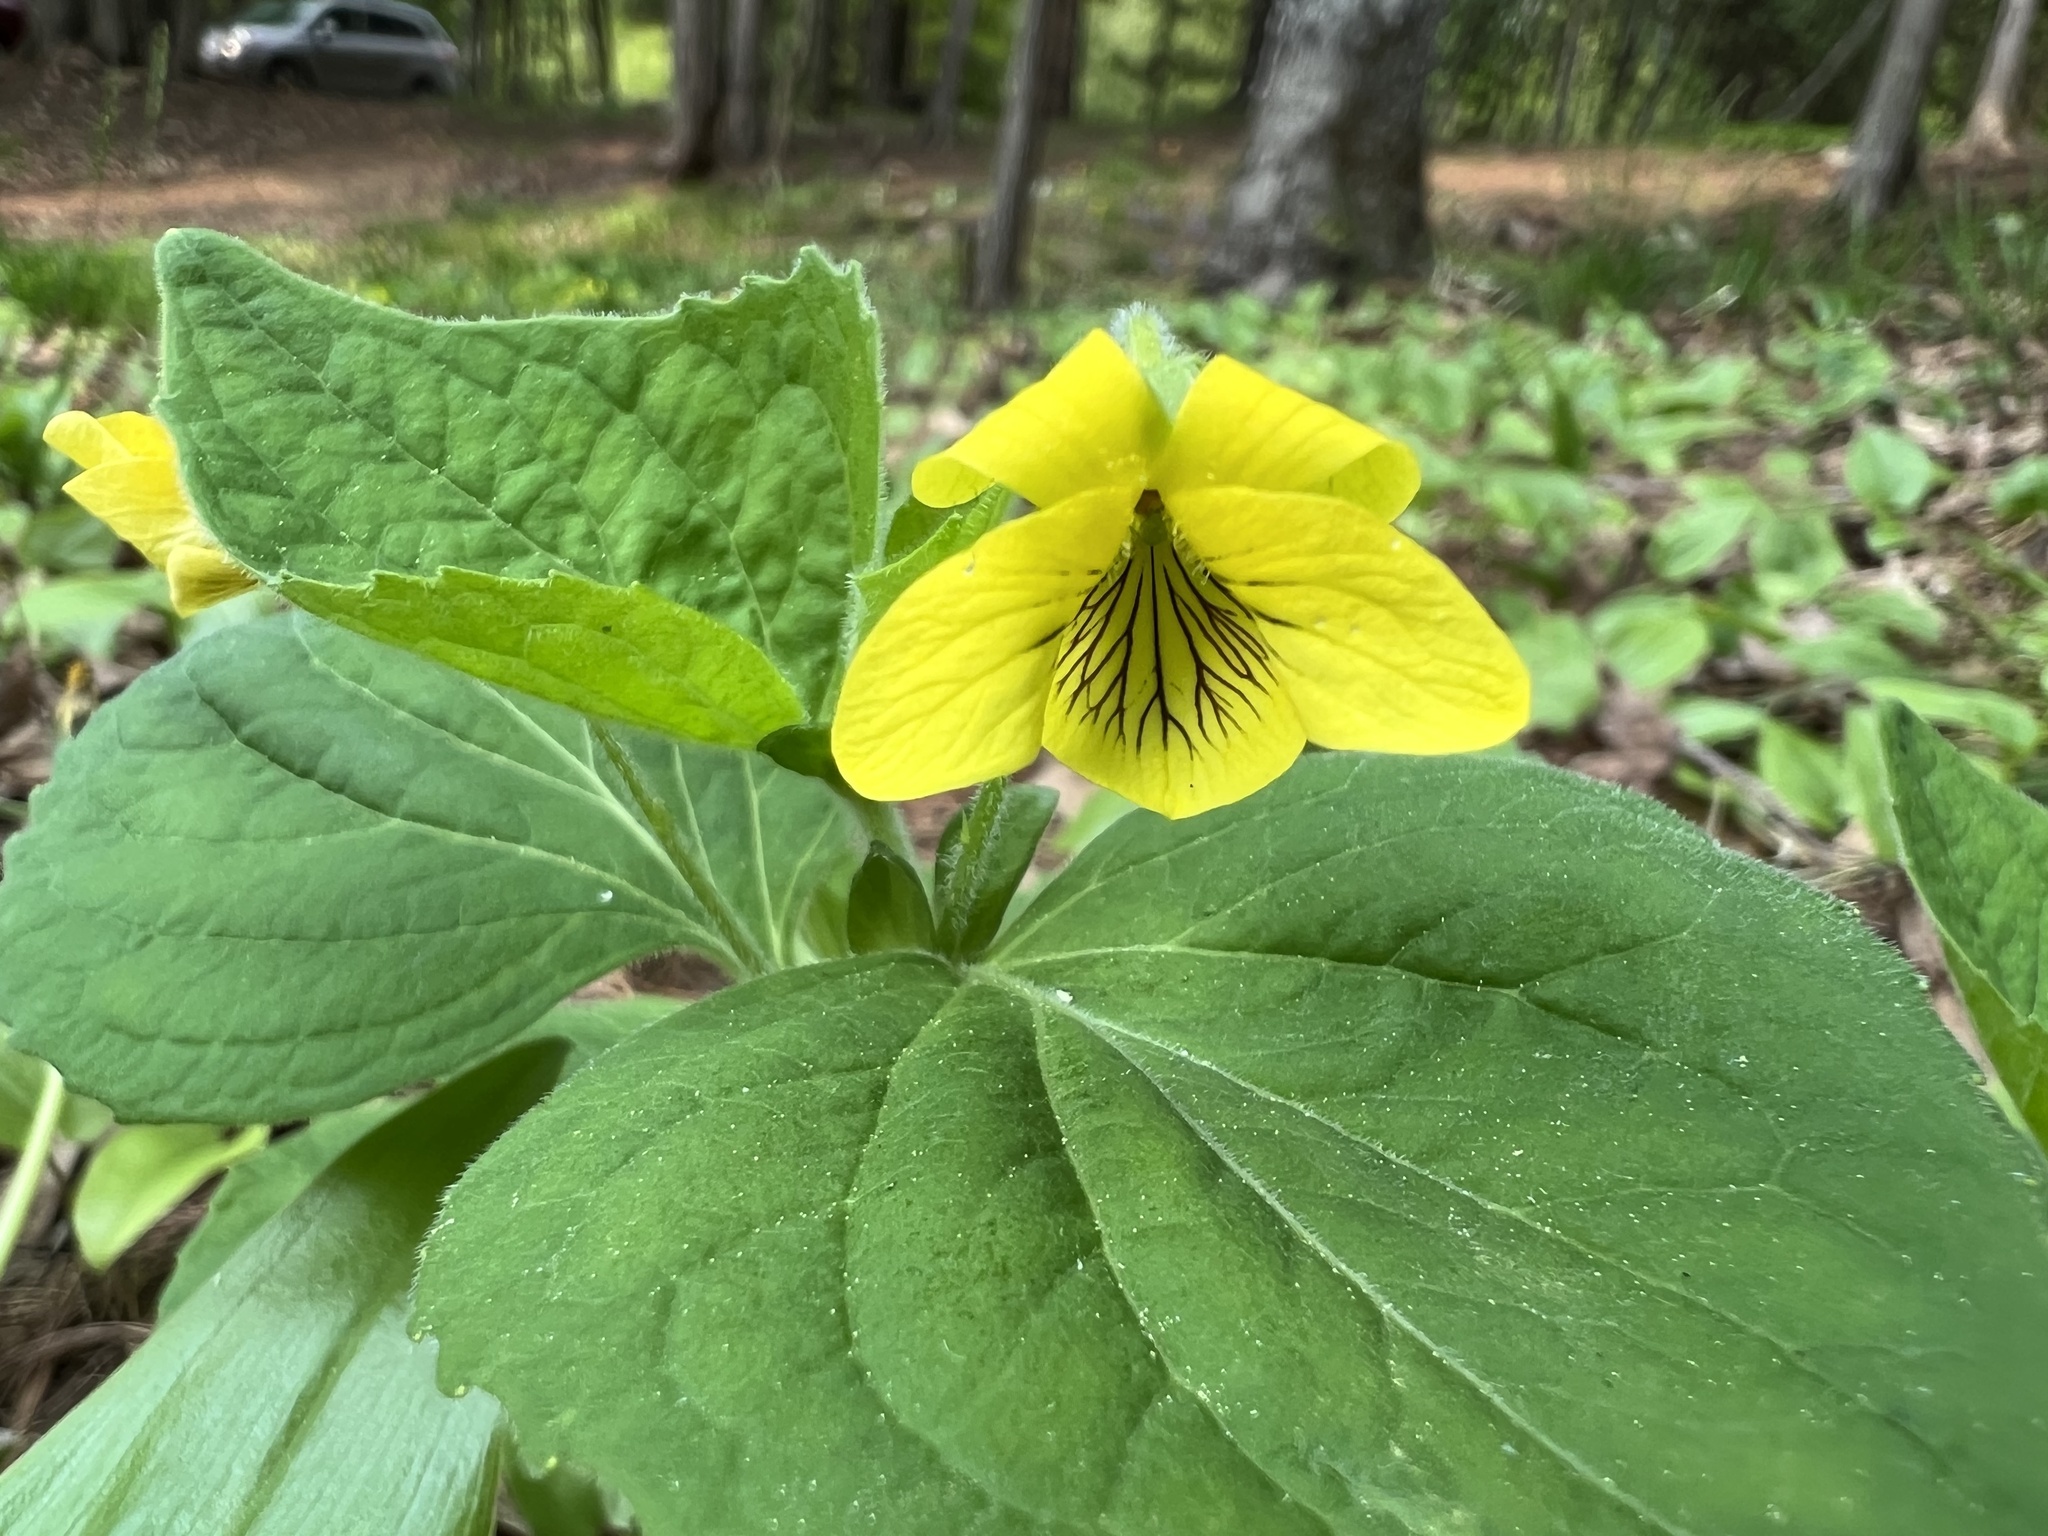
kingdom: Plantae
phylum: Tracheophyta
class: Magnoliopsida
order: Malpighiales
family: Violaceae
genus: Viola
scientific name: Viola eriocarpa
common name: Smooth yellow violet
